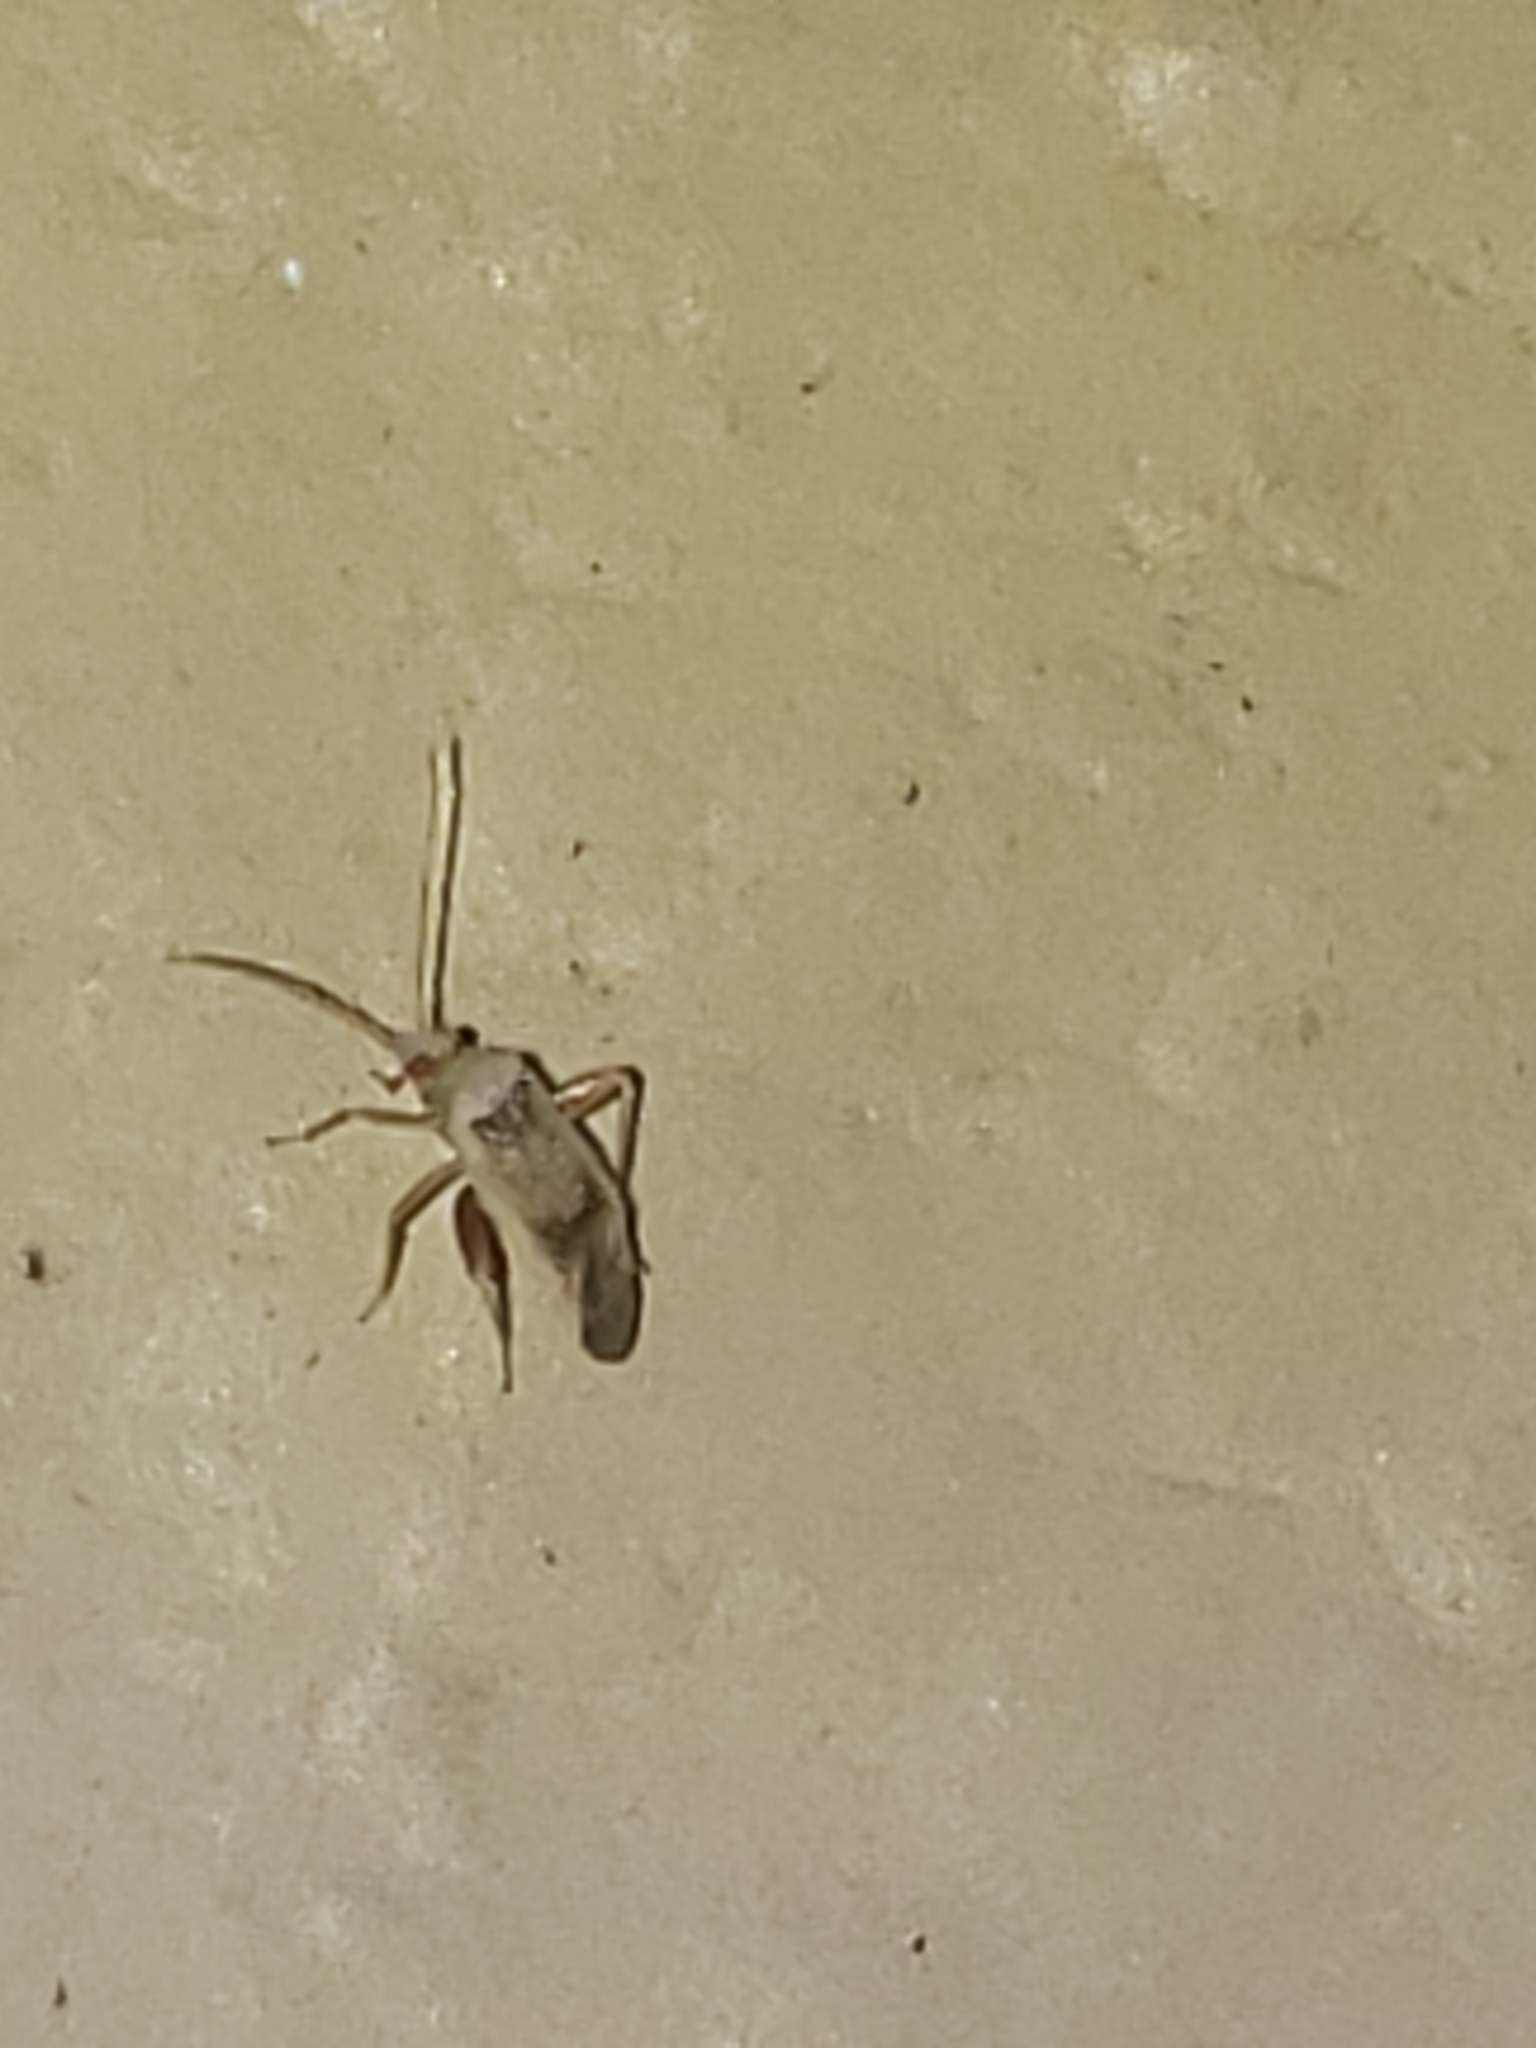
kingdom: Animalia
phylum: Arthropoda
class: Insecta
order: Lepidoptera
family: Gelechiidae
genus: Arogalea
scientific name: Arogalea cristifasciella
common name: White stripe-backed moth
